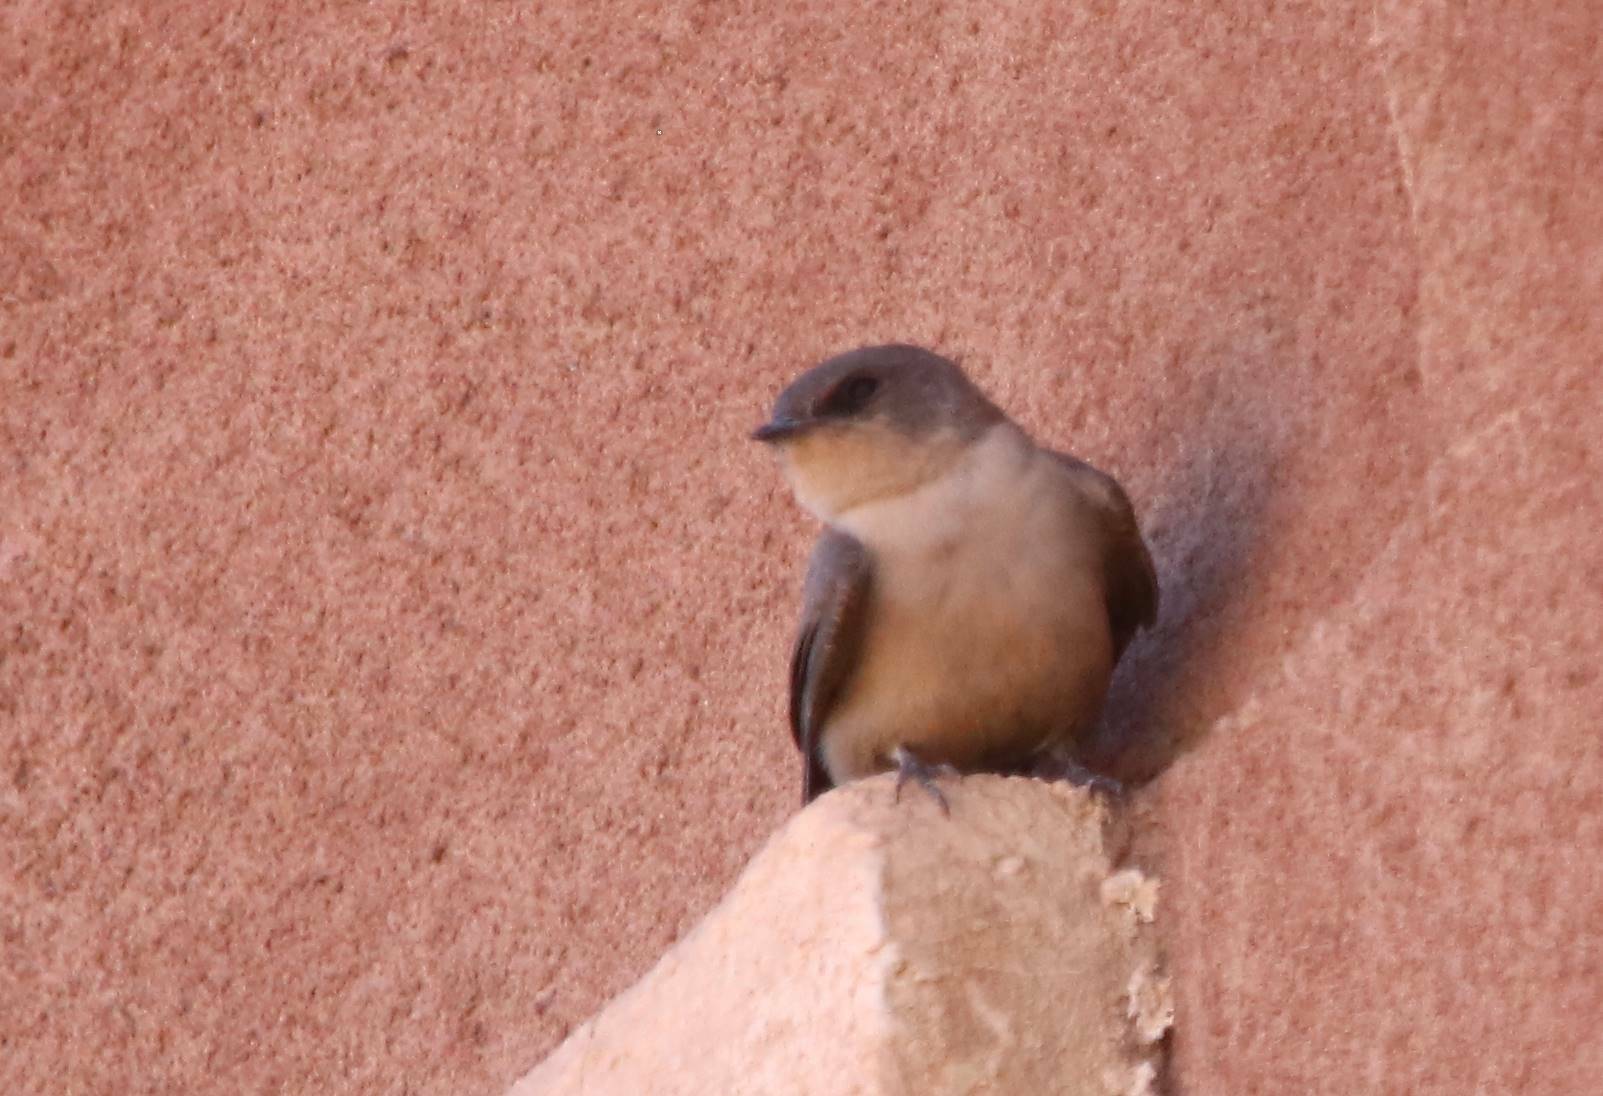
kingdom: Animalia
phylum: Chordata
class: Aves
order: Passeriformes
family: Hirundinidae
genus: Ptyonoprogne
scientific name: Ptyonoprogne fuligula
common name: Rock martin
